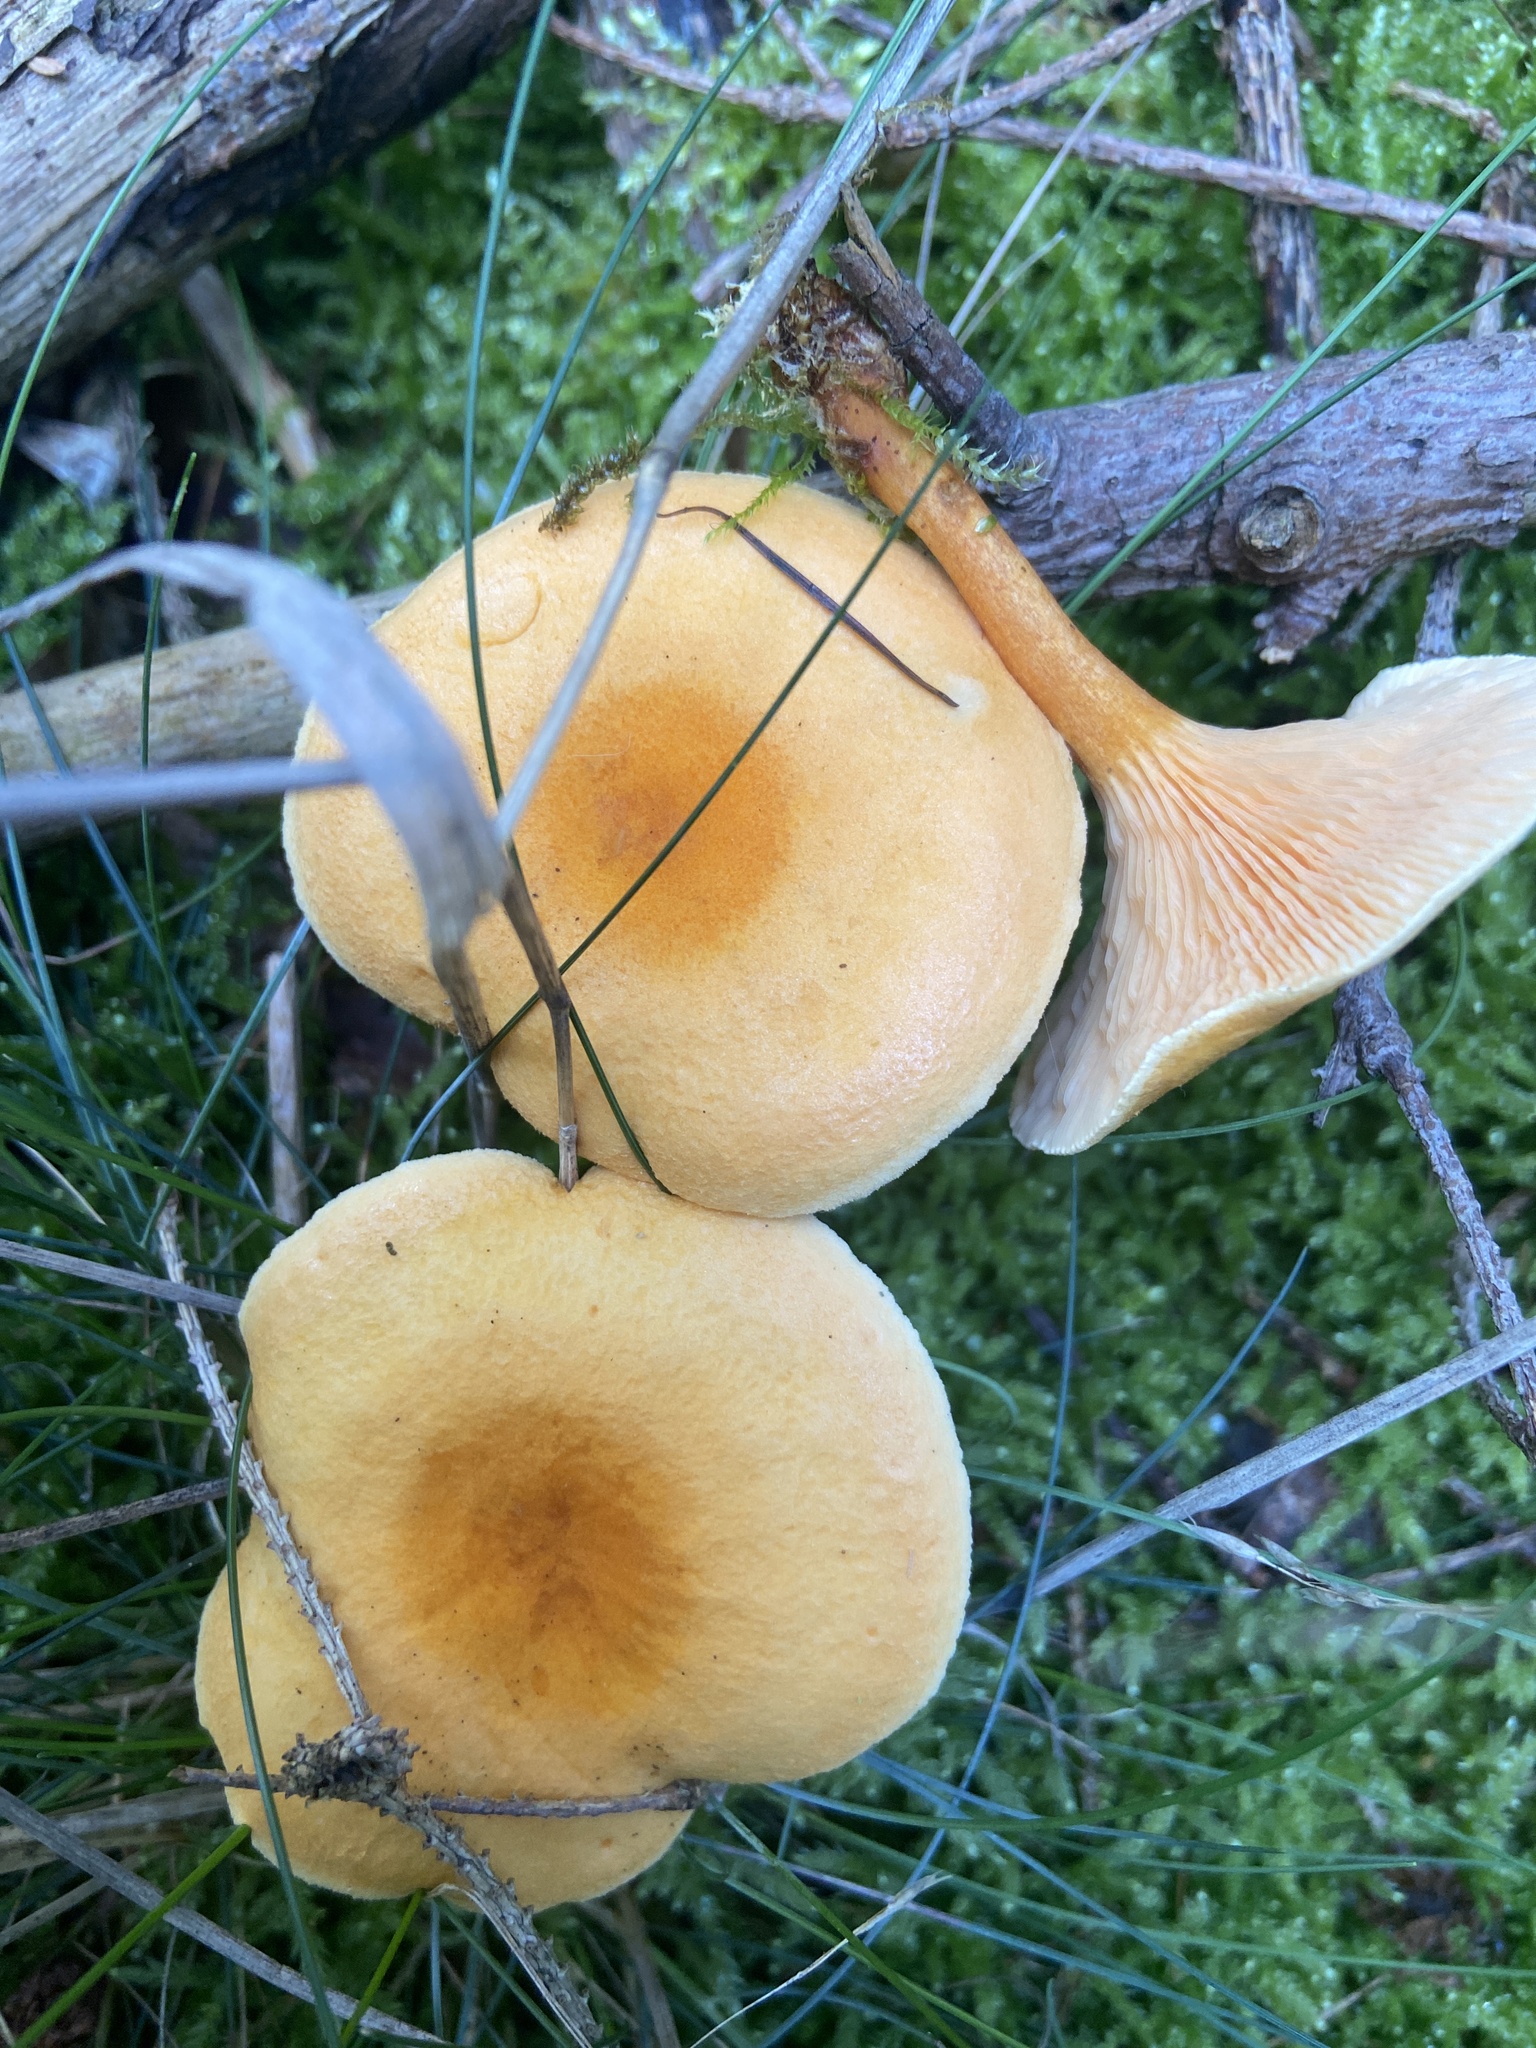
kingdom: Fungi
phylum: Basidiomycota
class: Agaricomycetes
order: Boletales
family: Hygrophoropsidaceae
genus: Hygrophoropsis
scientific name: Hygrophoropsis aurantiaca
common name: False chanterelle
